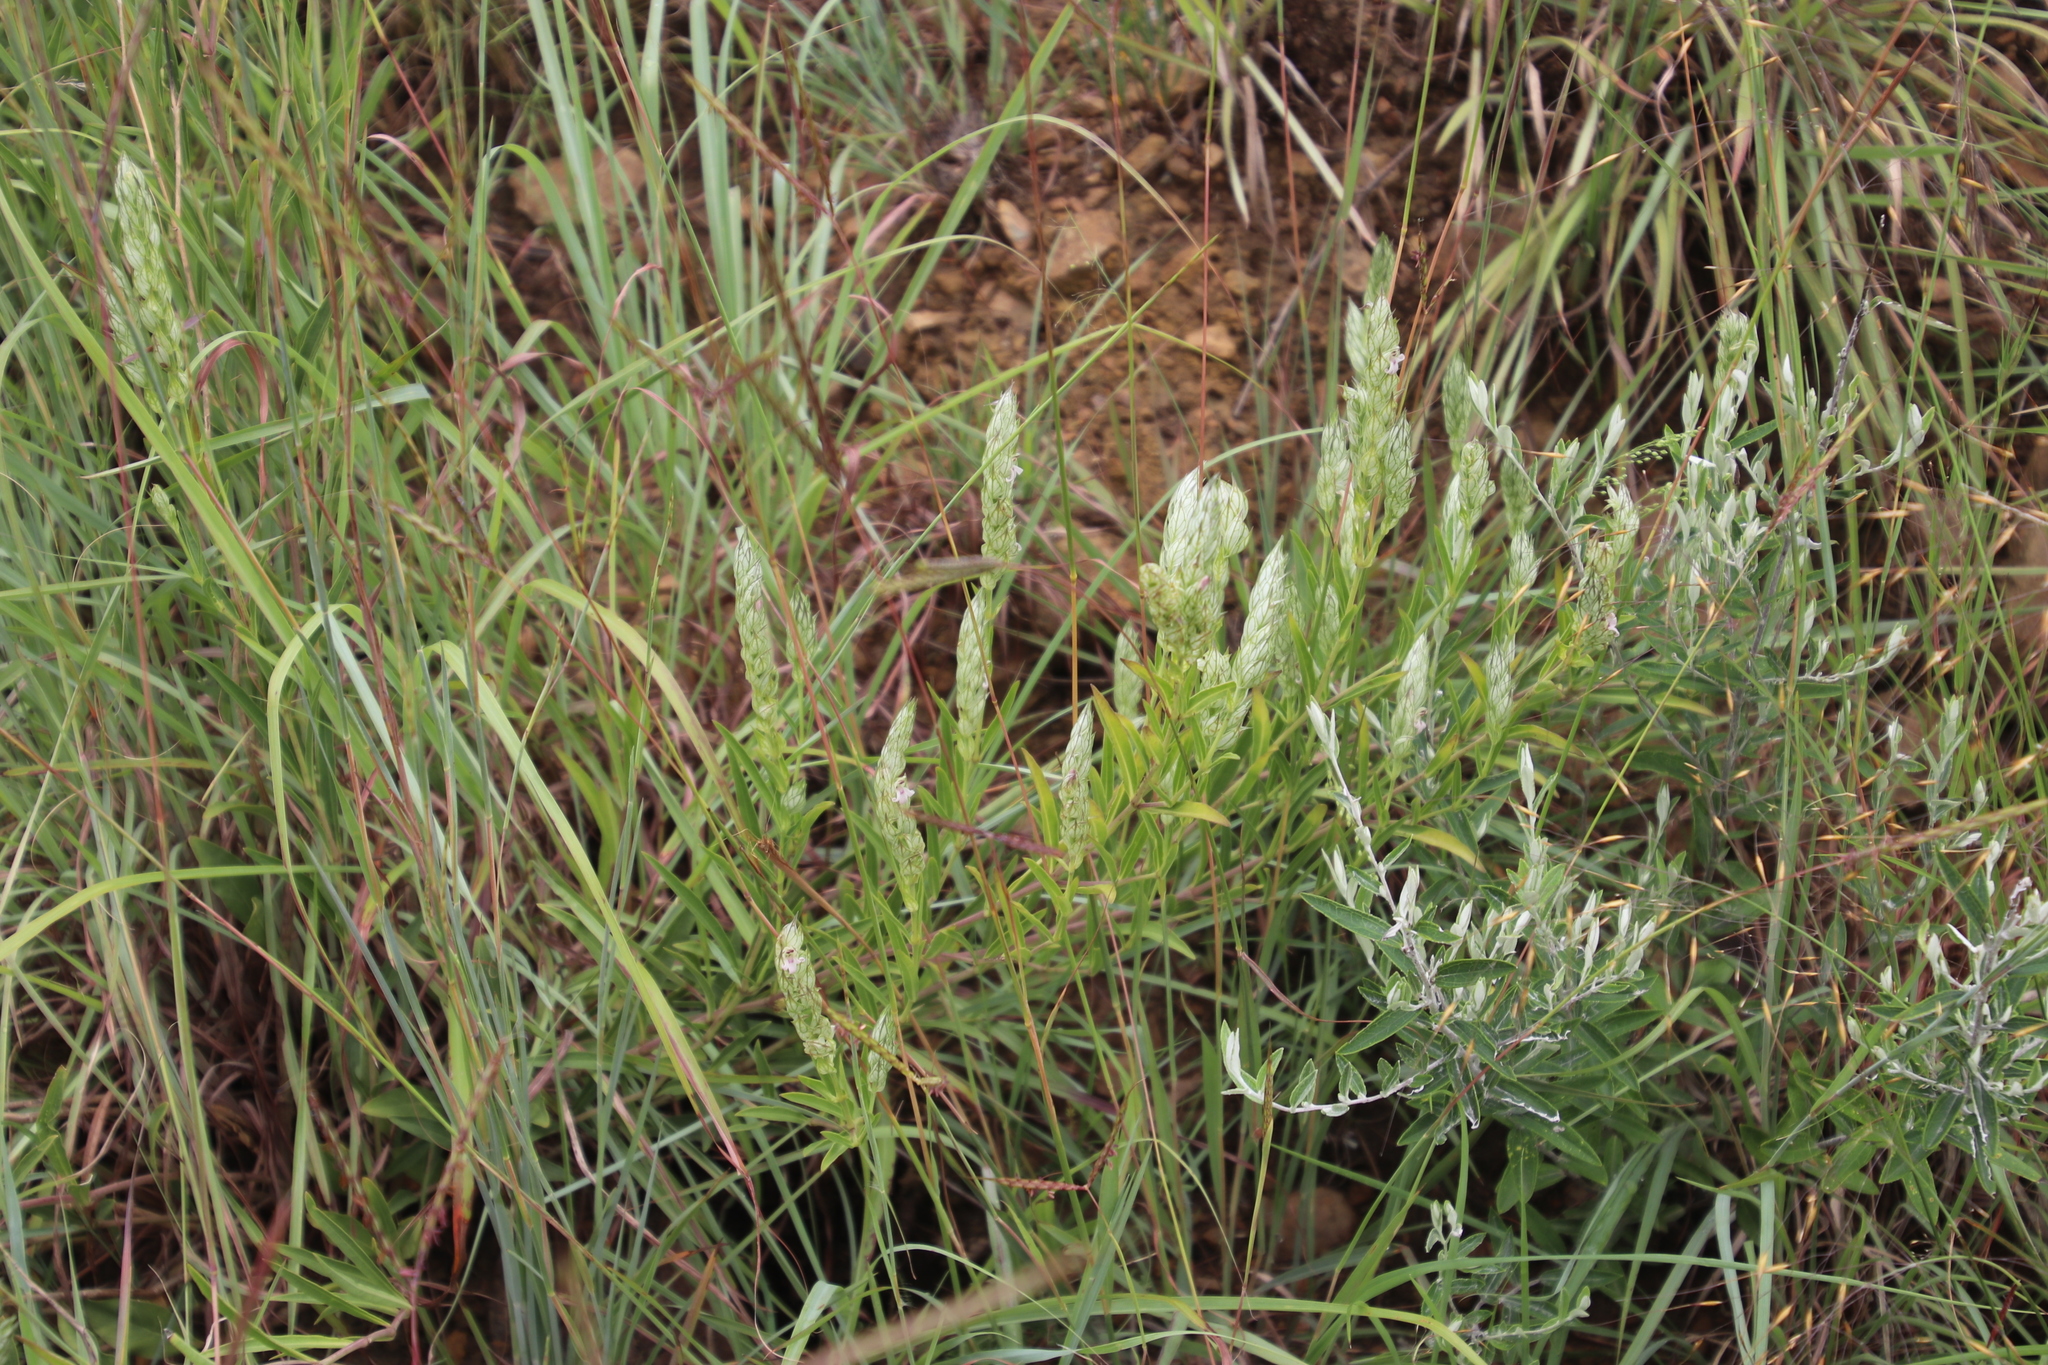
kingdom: Plantae
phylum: Tracheophyta
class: Magnoliopsida
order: Lamiales
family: Acanthaceae
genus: Justicia
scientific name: Justicia betonica
